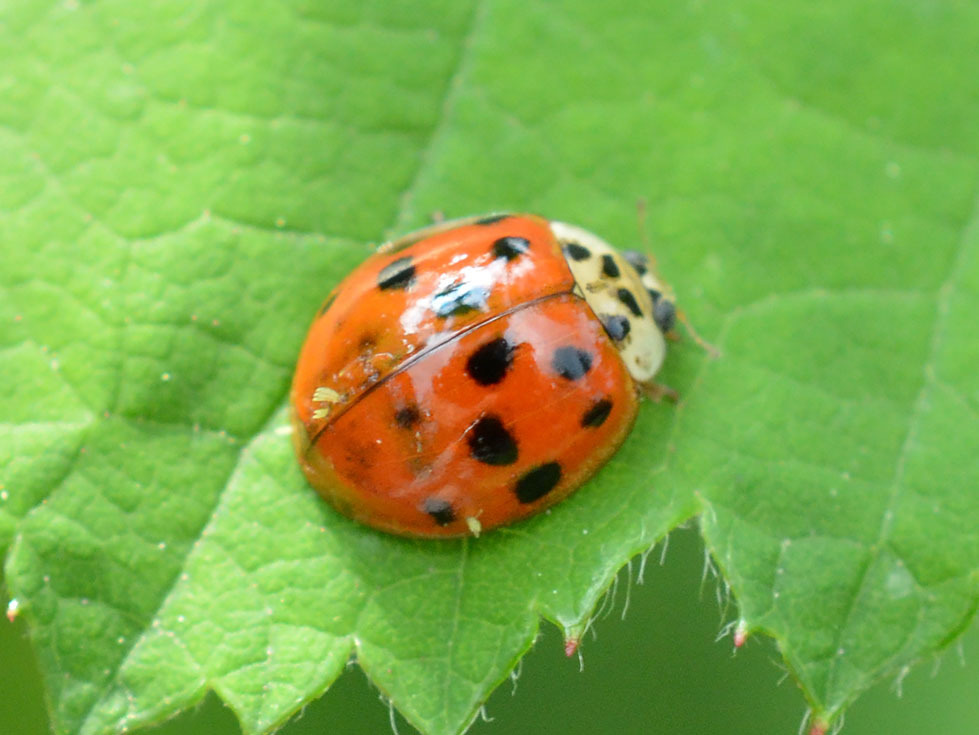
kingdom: Fungi
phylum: Ascomycota
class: Laboulbeniomycetes
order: Laboulbeniales
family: Laboulbeniaceae
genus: Hesperomyces
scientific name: Hesperomyces harmoniae
